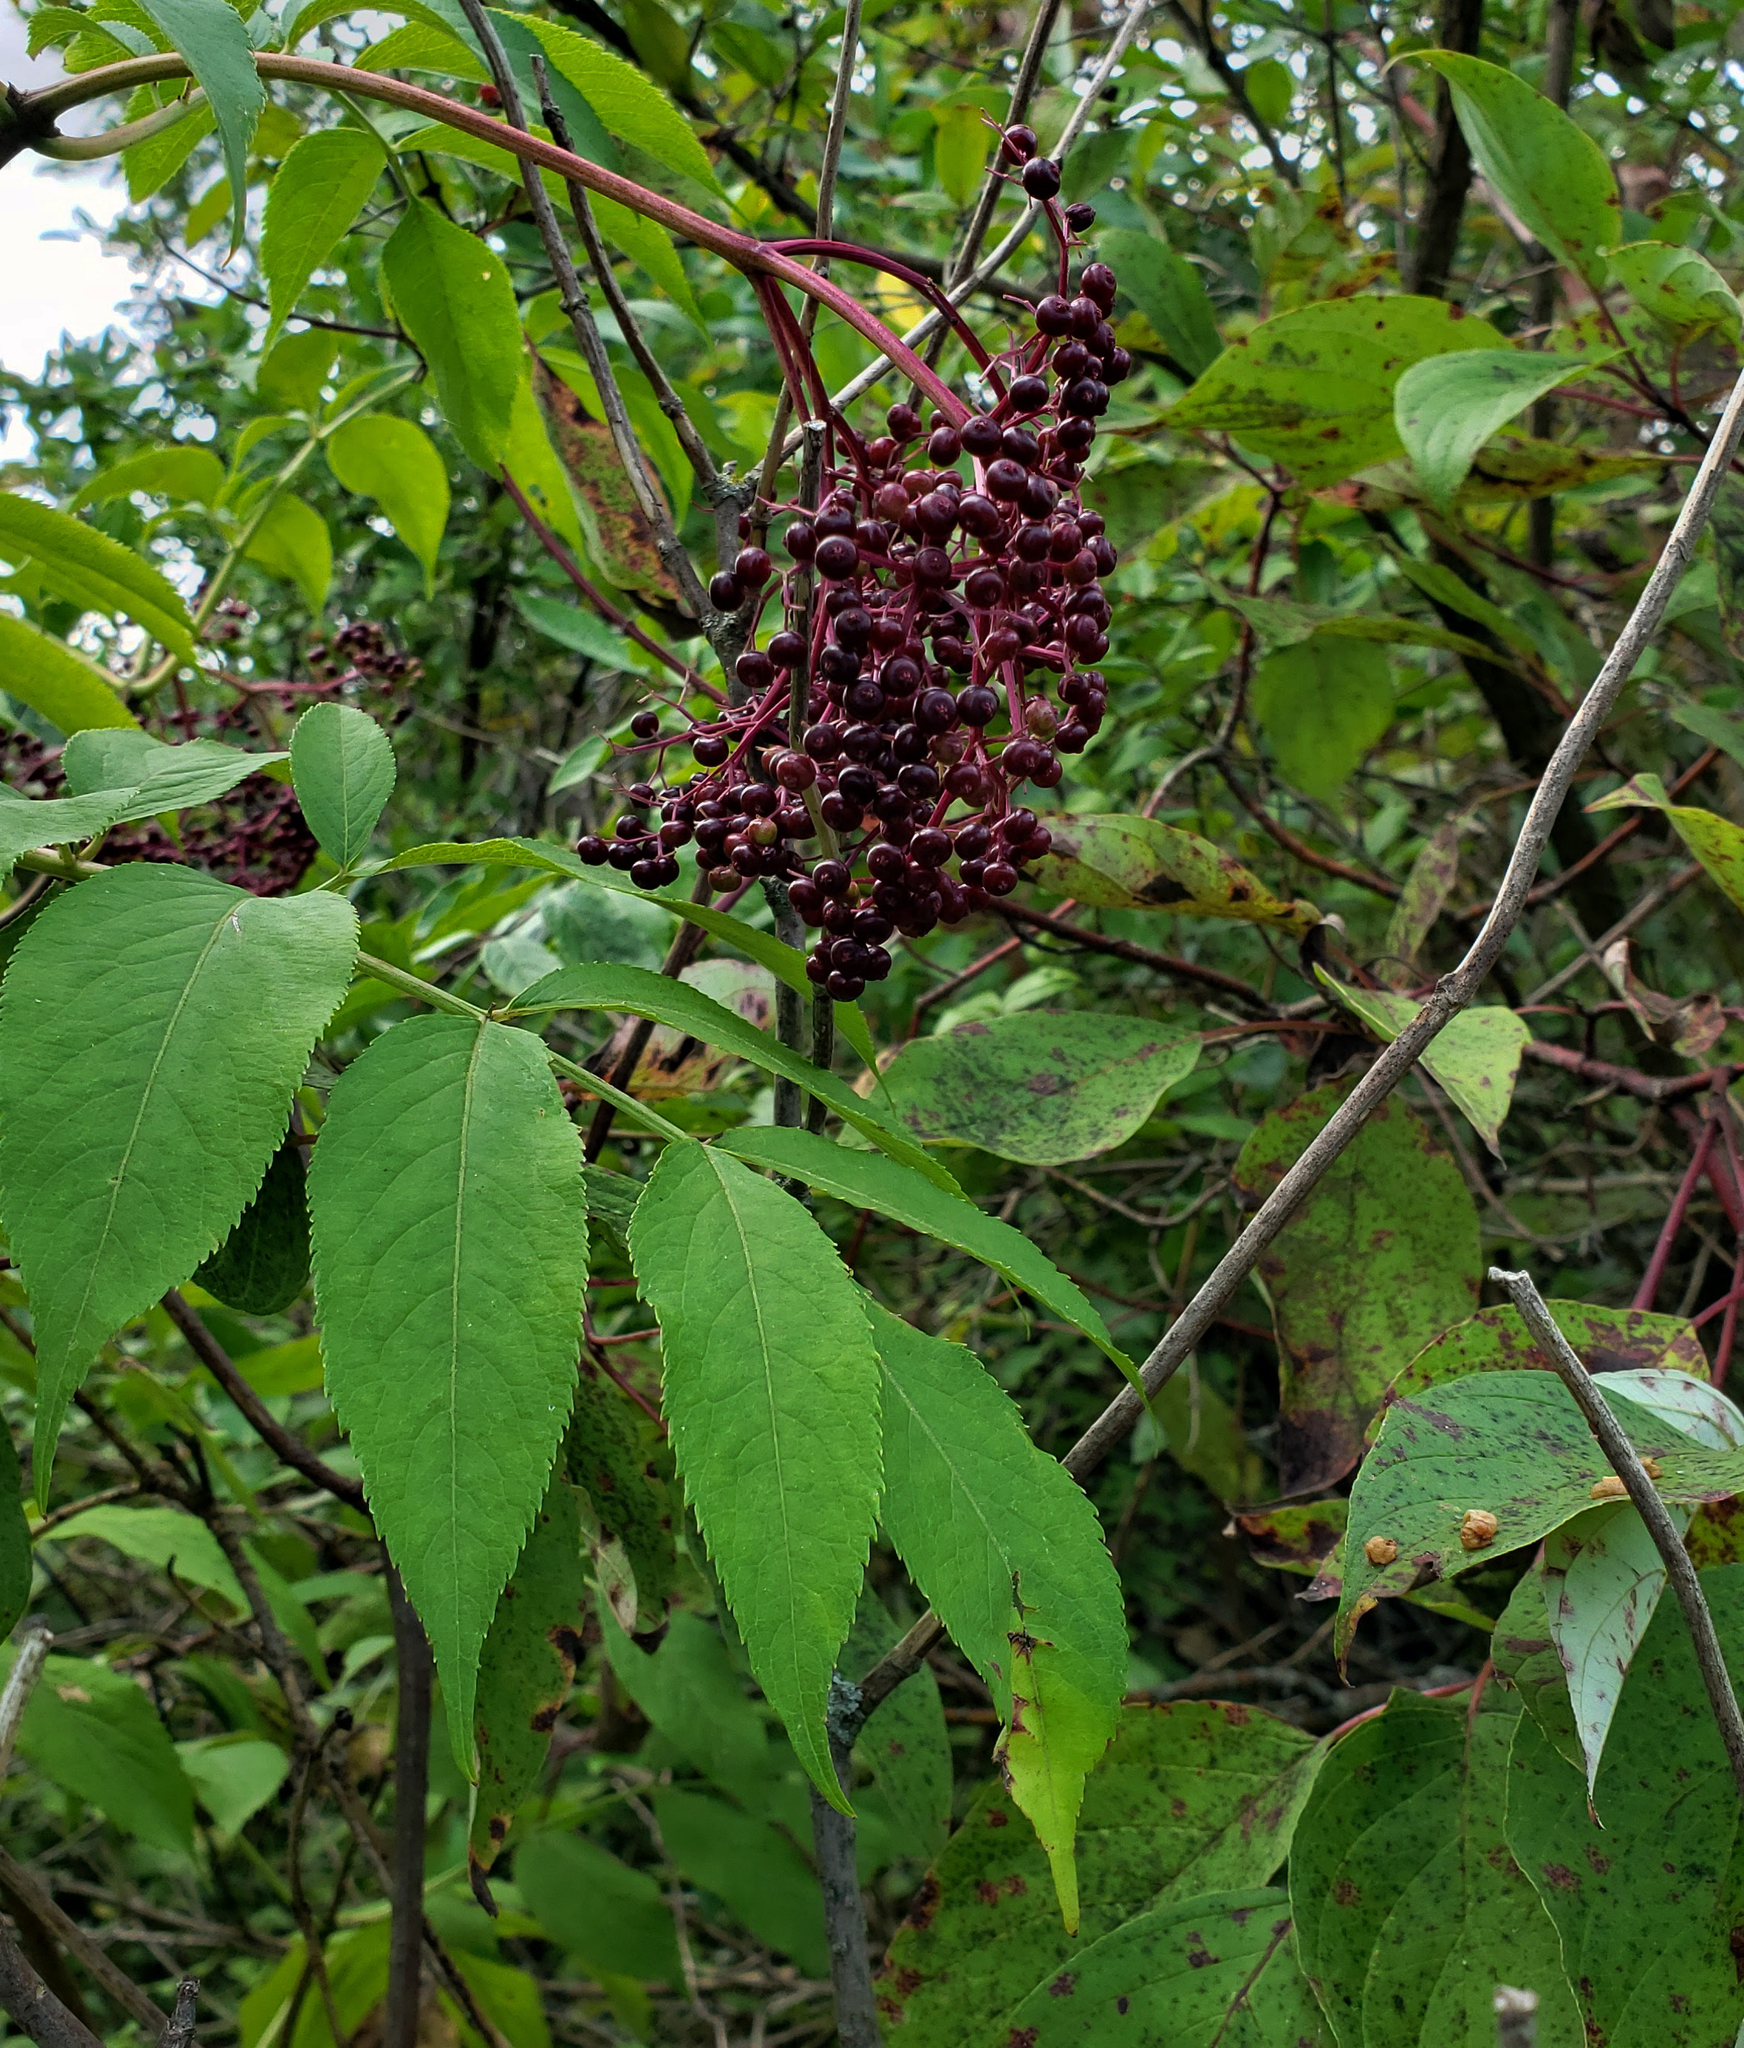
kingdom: Plantae
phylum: Tracheophyta
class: Magnoliopsida
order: Dipsacales
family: Viburnaceae
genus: Sambucus
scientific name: Sambucus canadensis
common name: American elder
